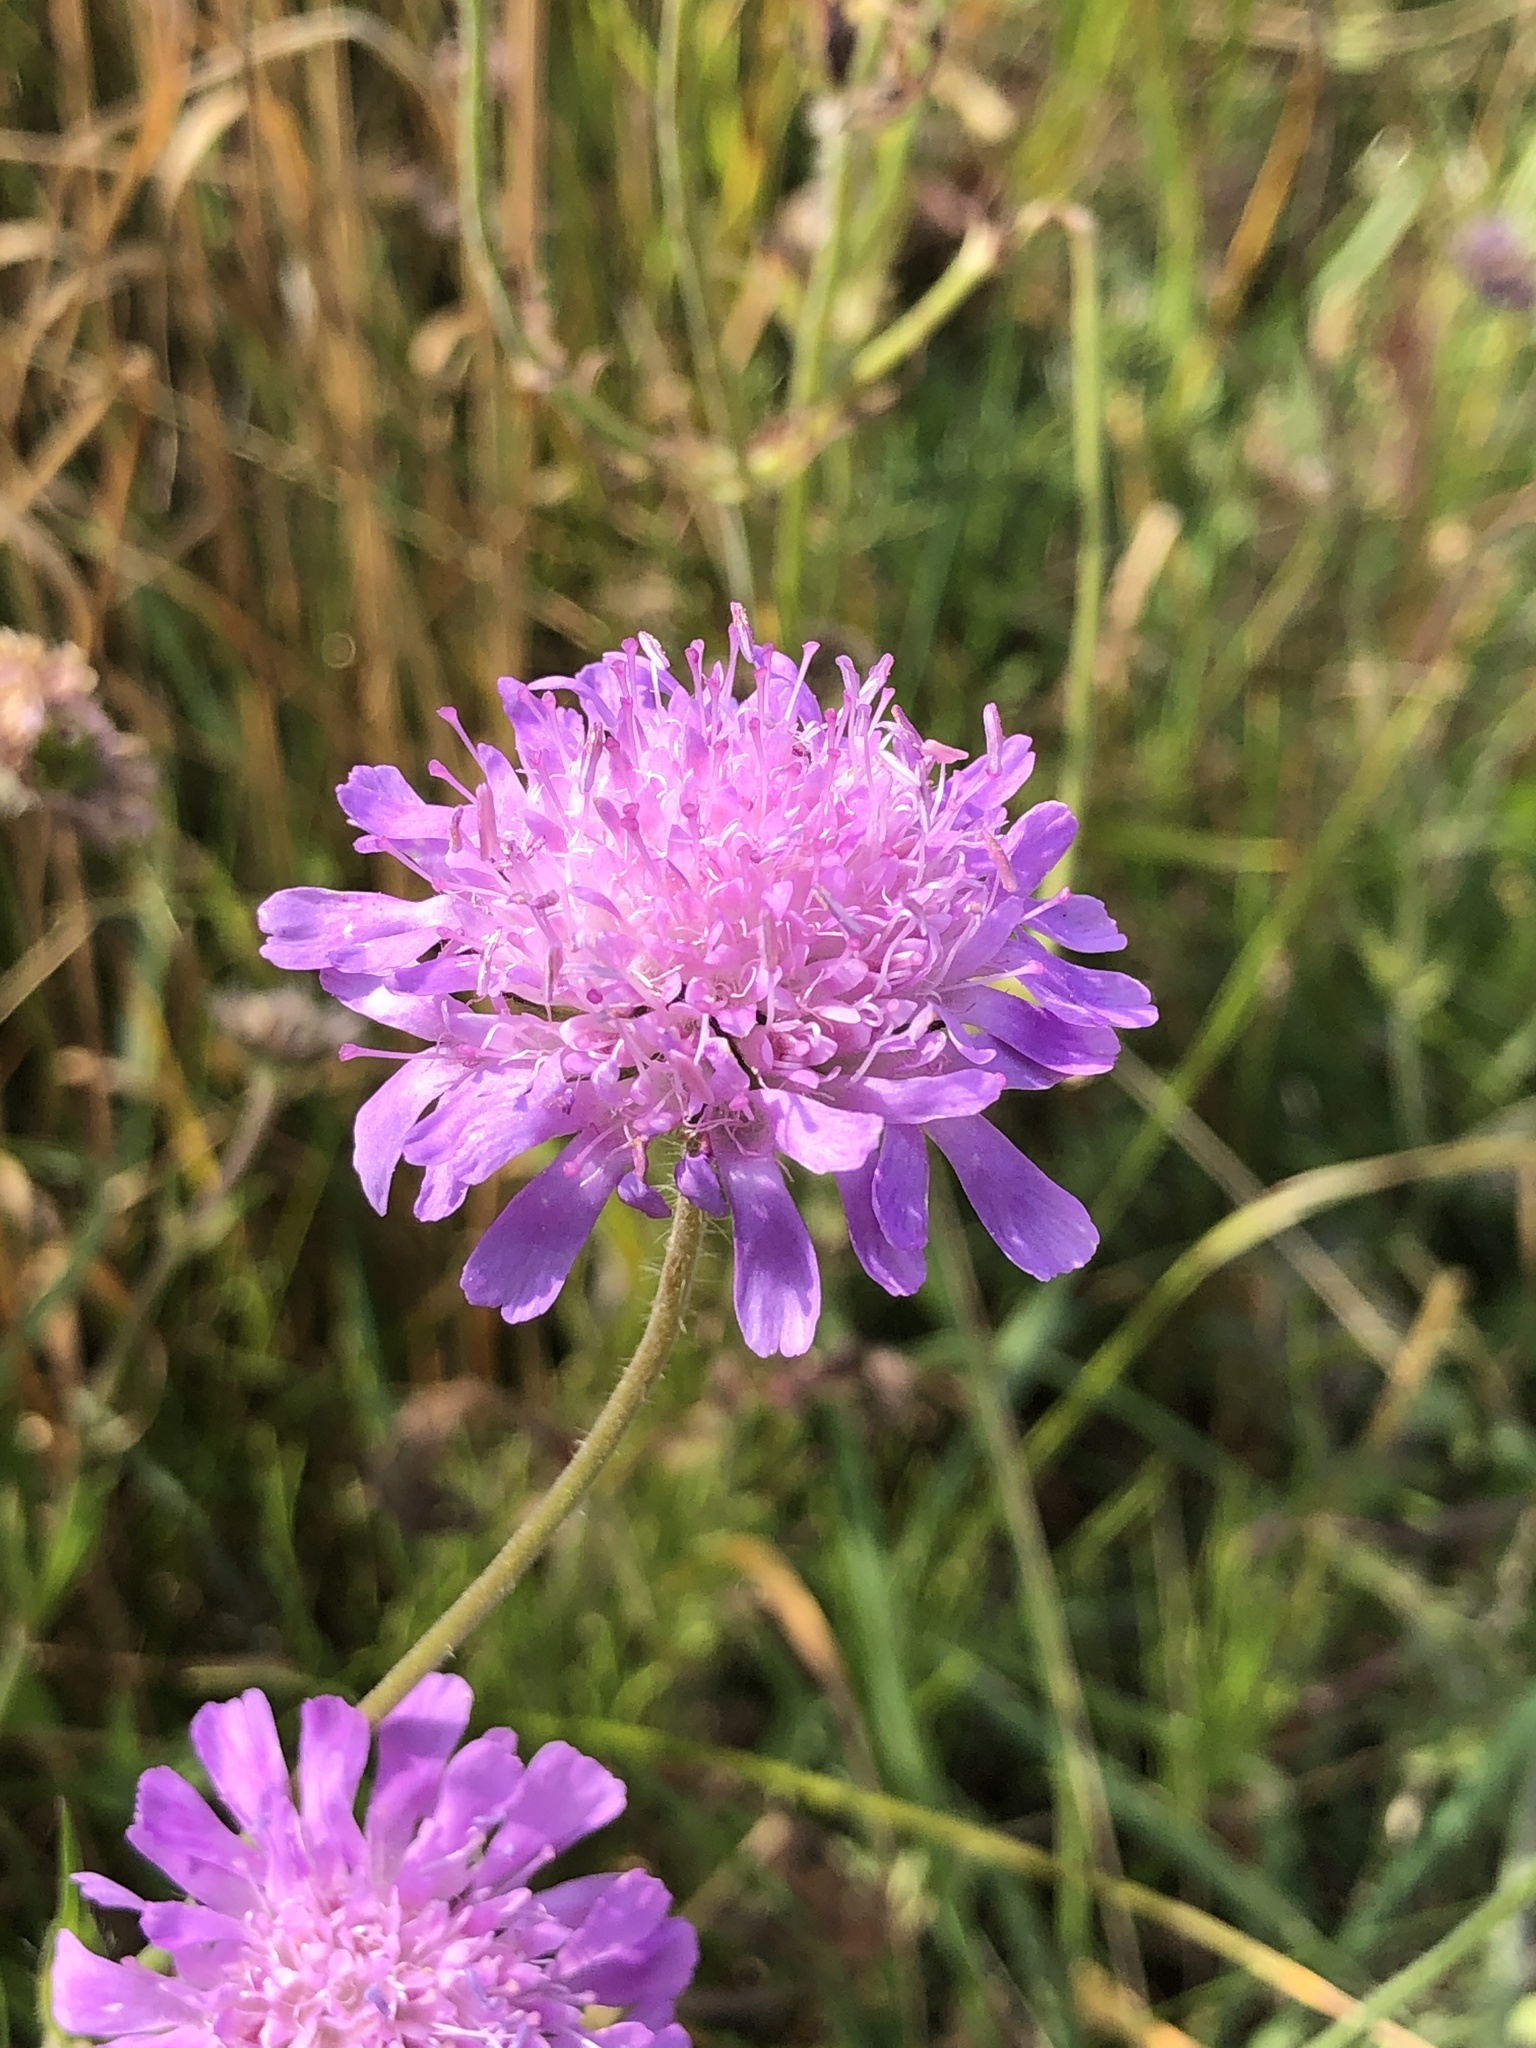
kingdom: Plantae
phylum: Tracheophyta
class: Magnoliopsida
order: Dipsacales
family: Caprifoliaceae
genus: Knautia
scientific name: Knautia arvensis
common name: Field scabiosa
